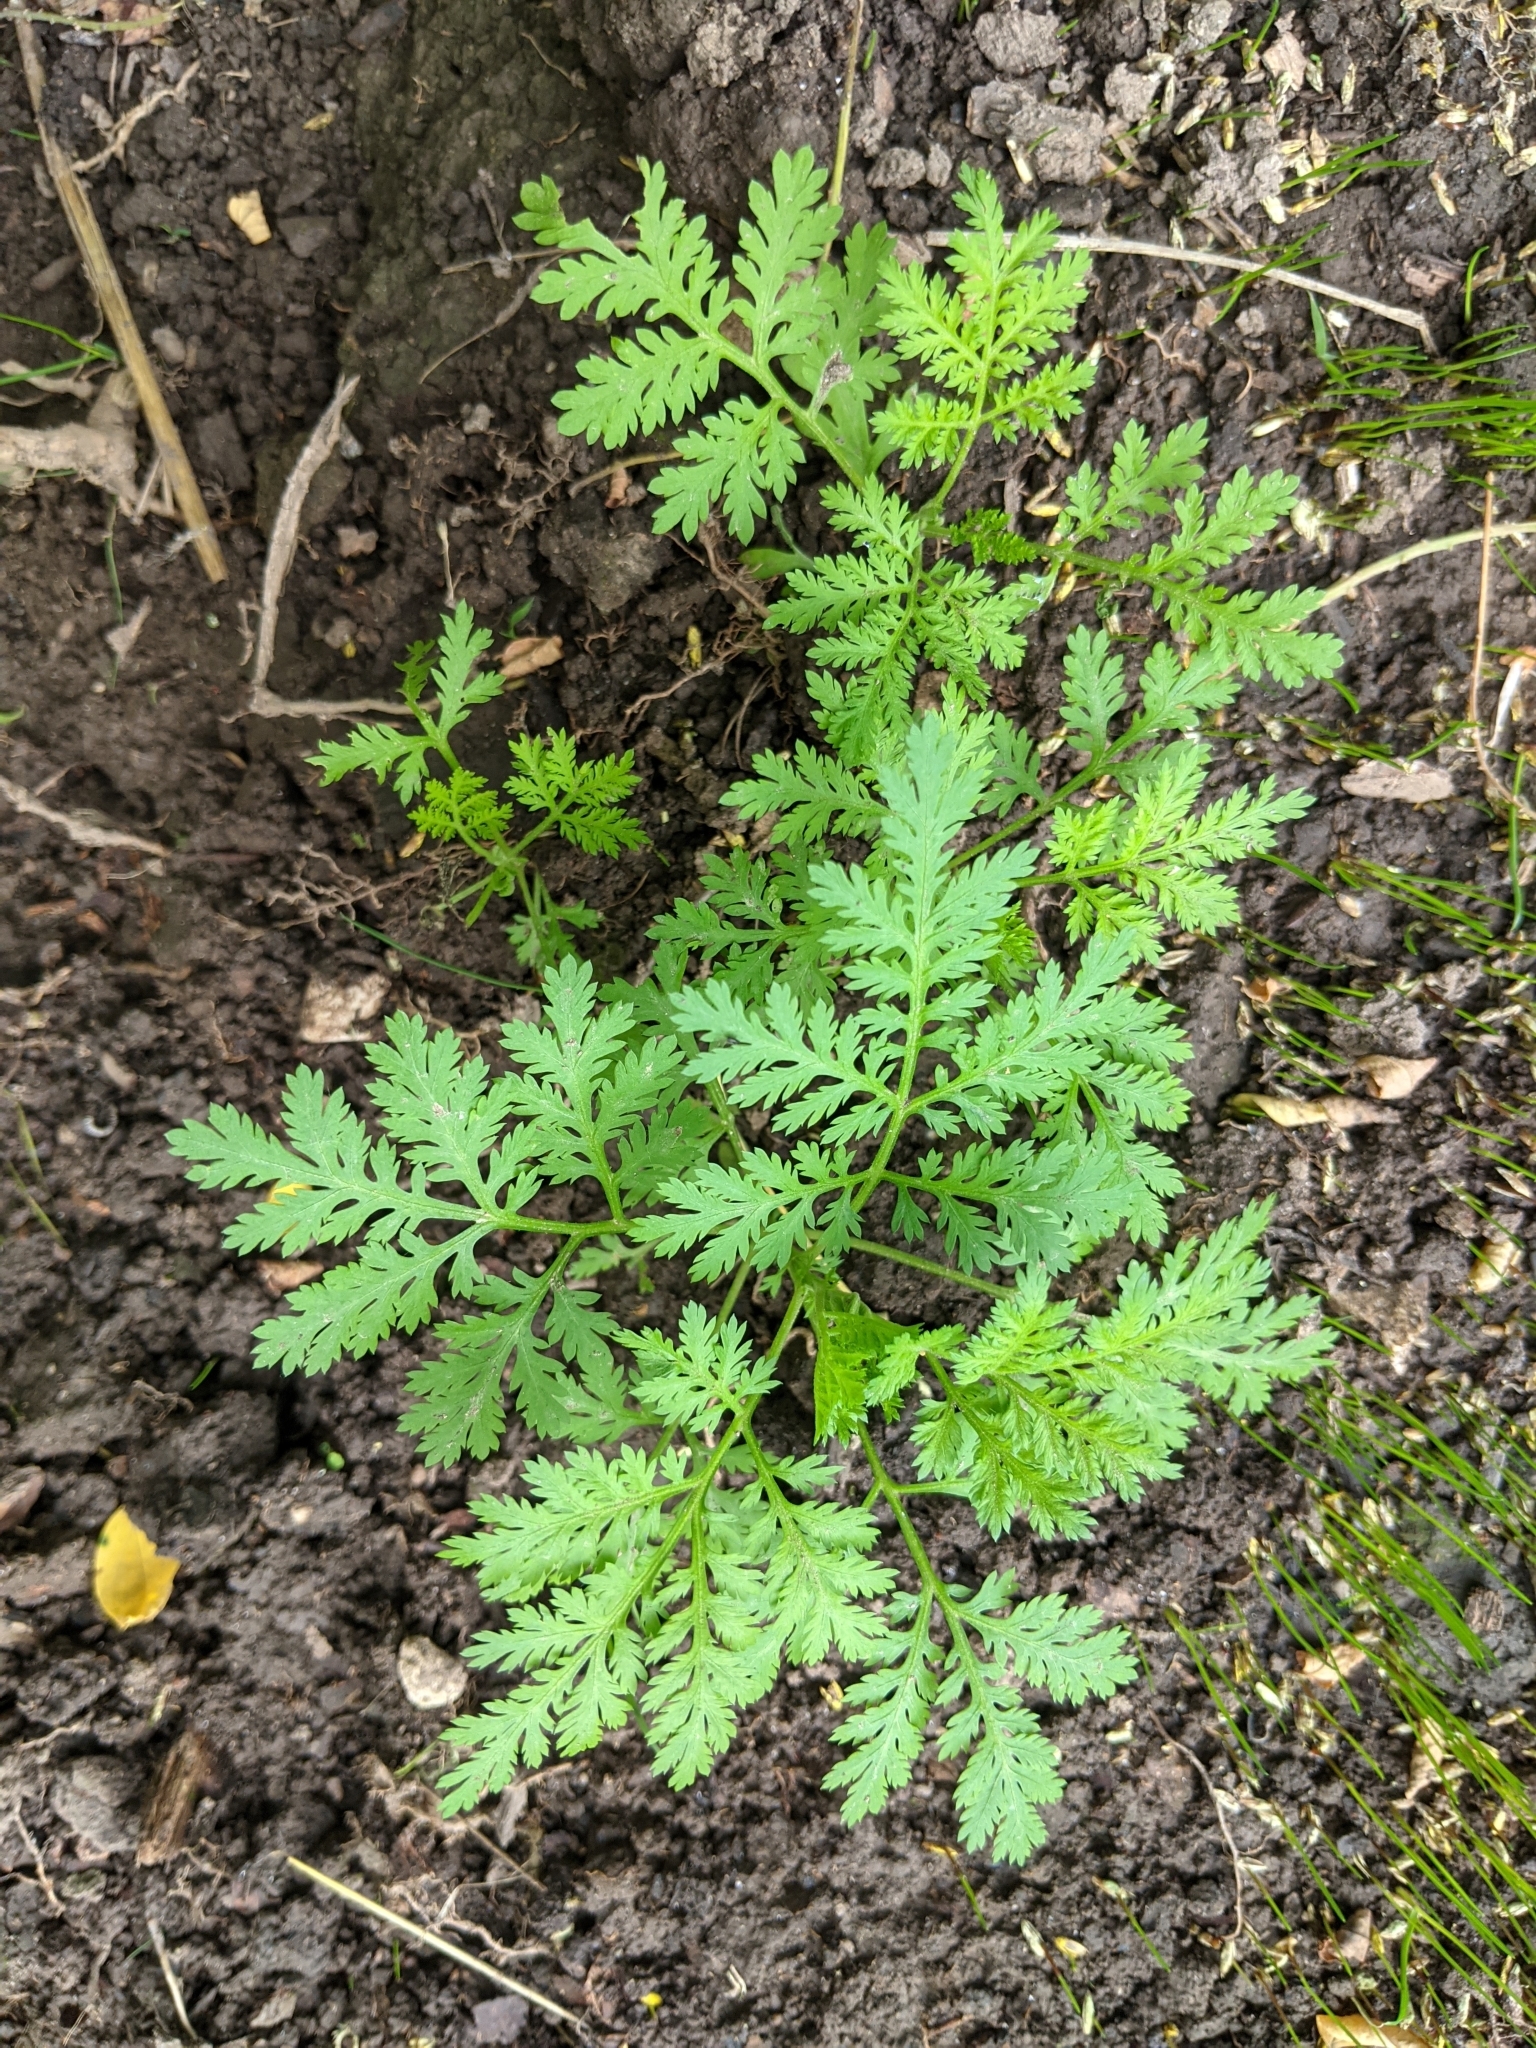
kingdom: Plantae
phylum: Tracheophyta
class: Magnoliopsida
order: Asterales
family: Asteraceae
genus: Artemisia
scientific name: Artemisia annua
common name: Sweet sagewort
